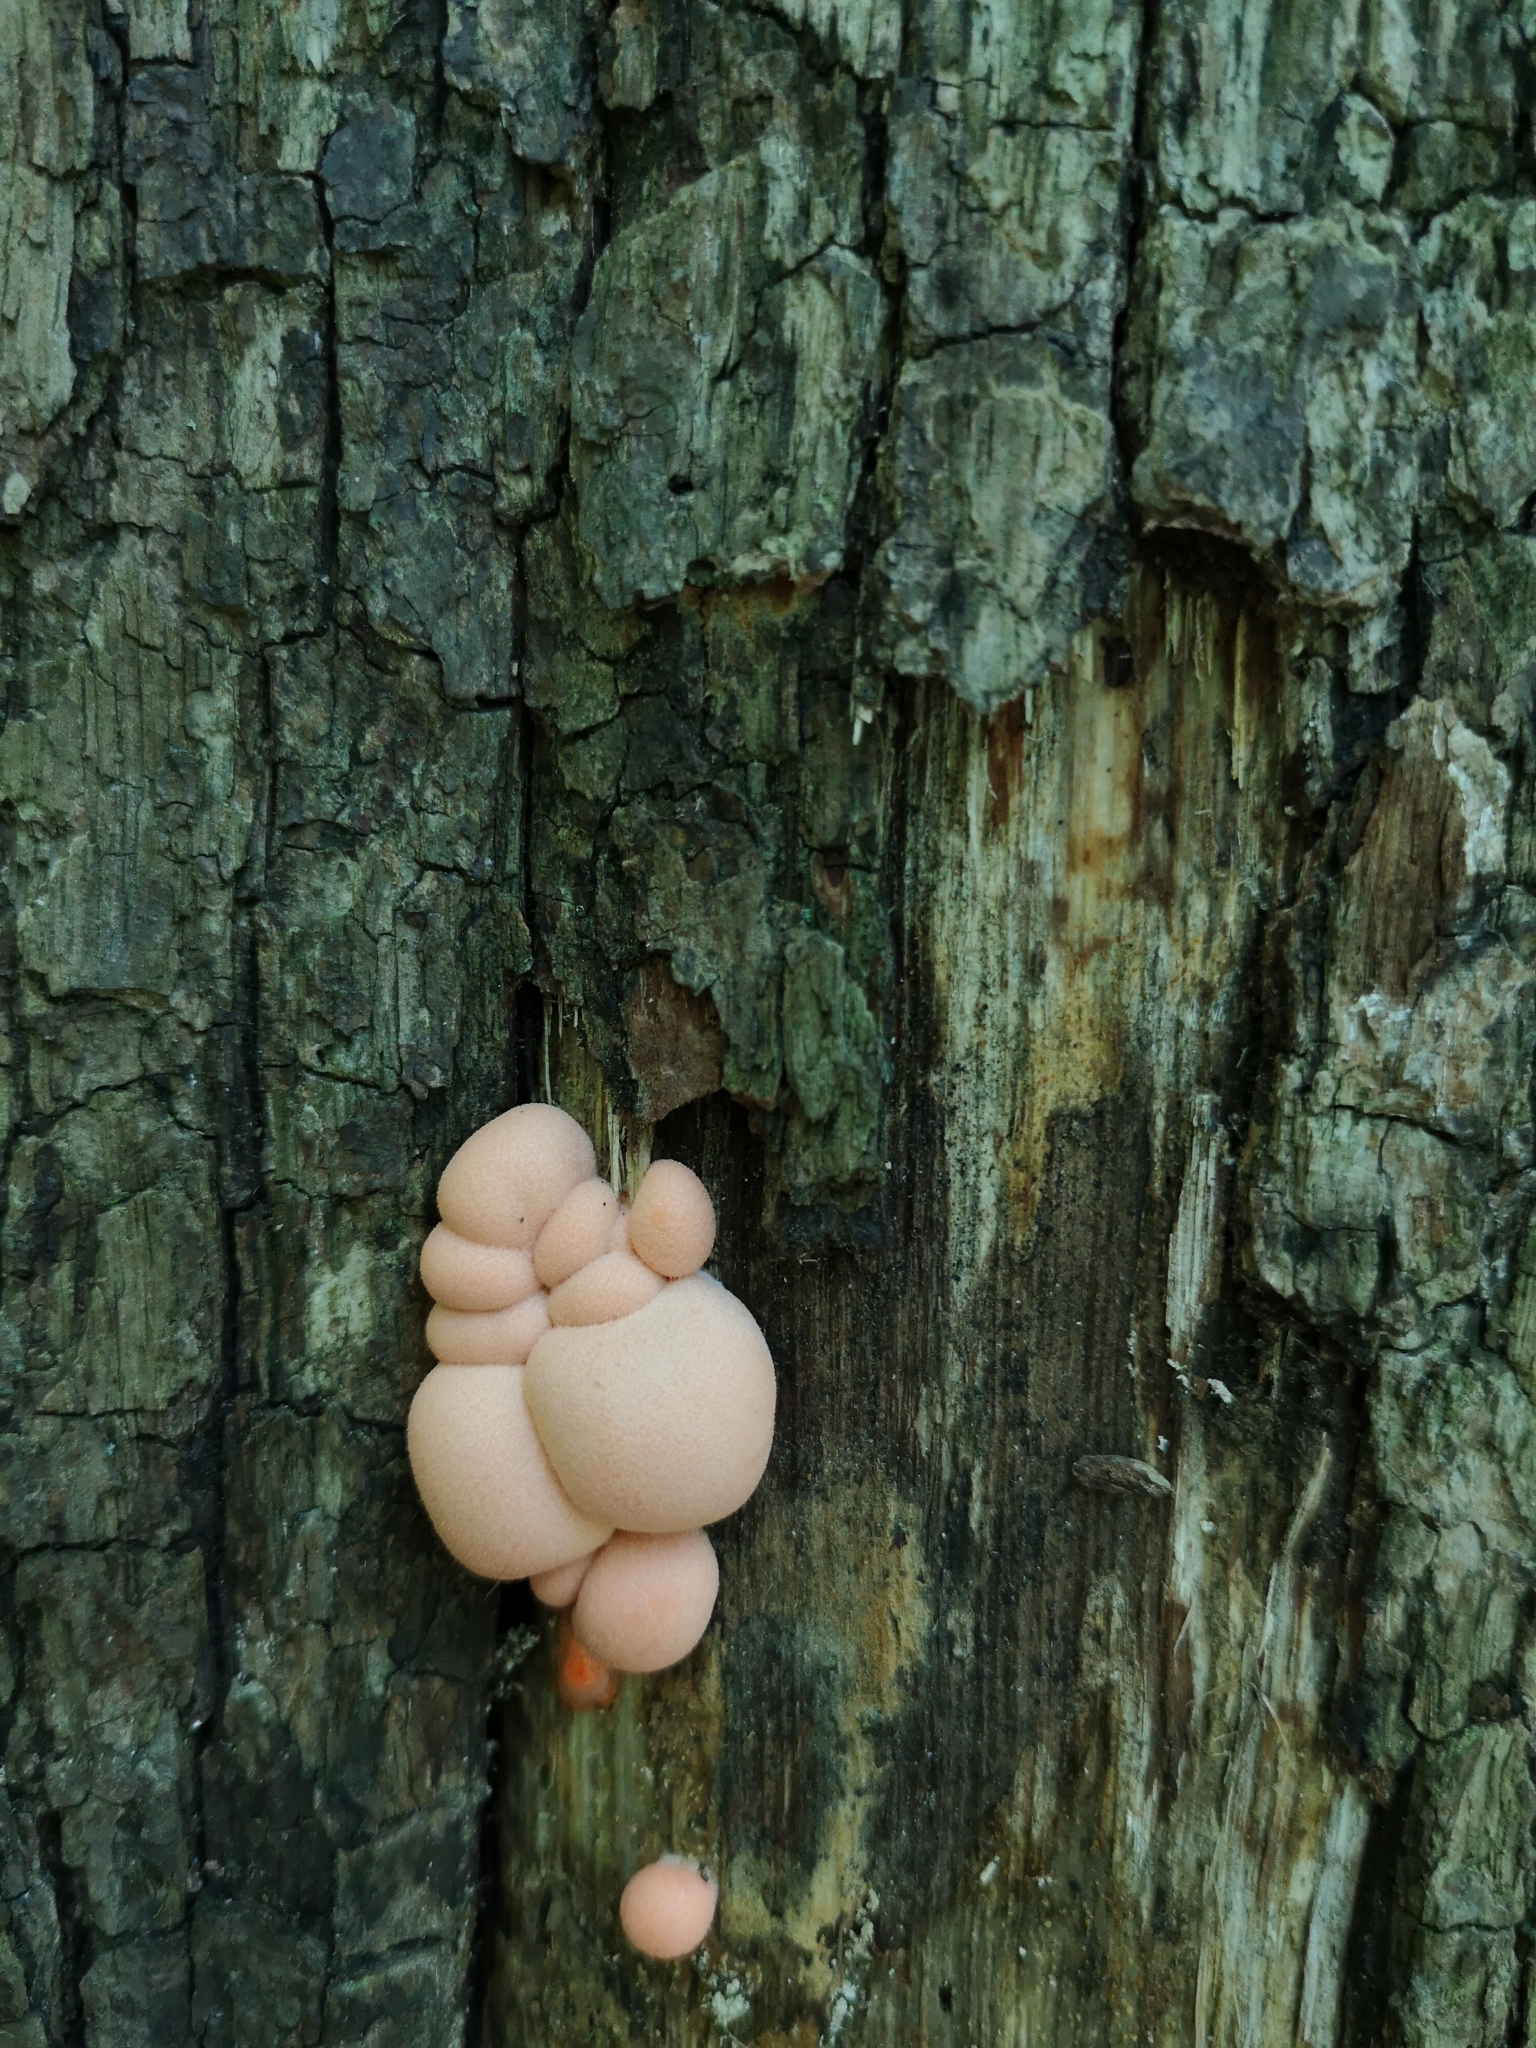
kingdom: Protozoa
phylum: Mycetozoa
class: Myxomycetes
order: Cribrariales
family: Tubiferaceae
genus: Lycogala
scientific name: Lycogala epidendrum
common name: Wolf's milk
